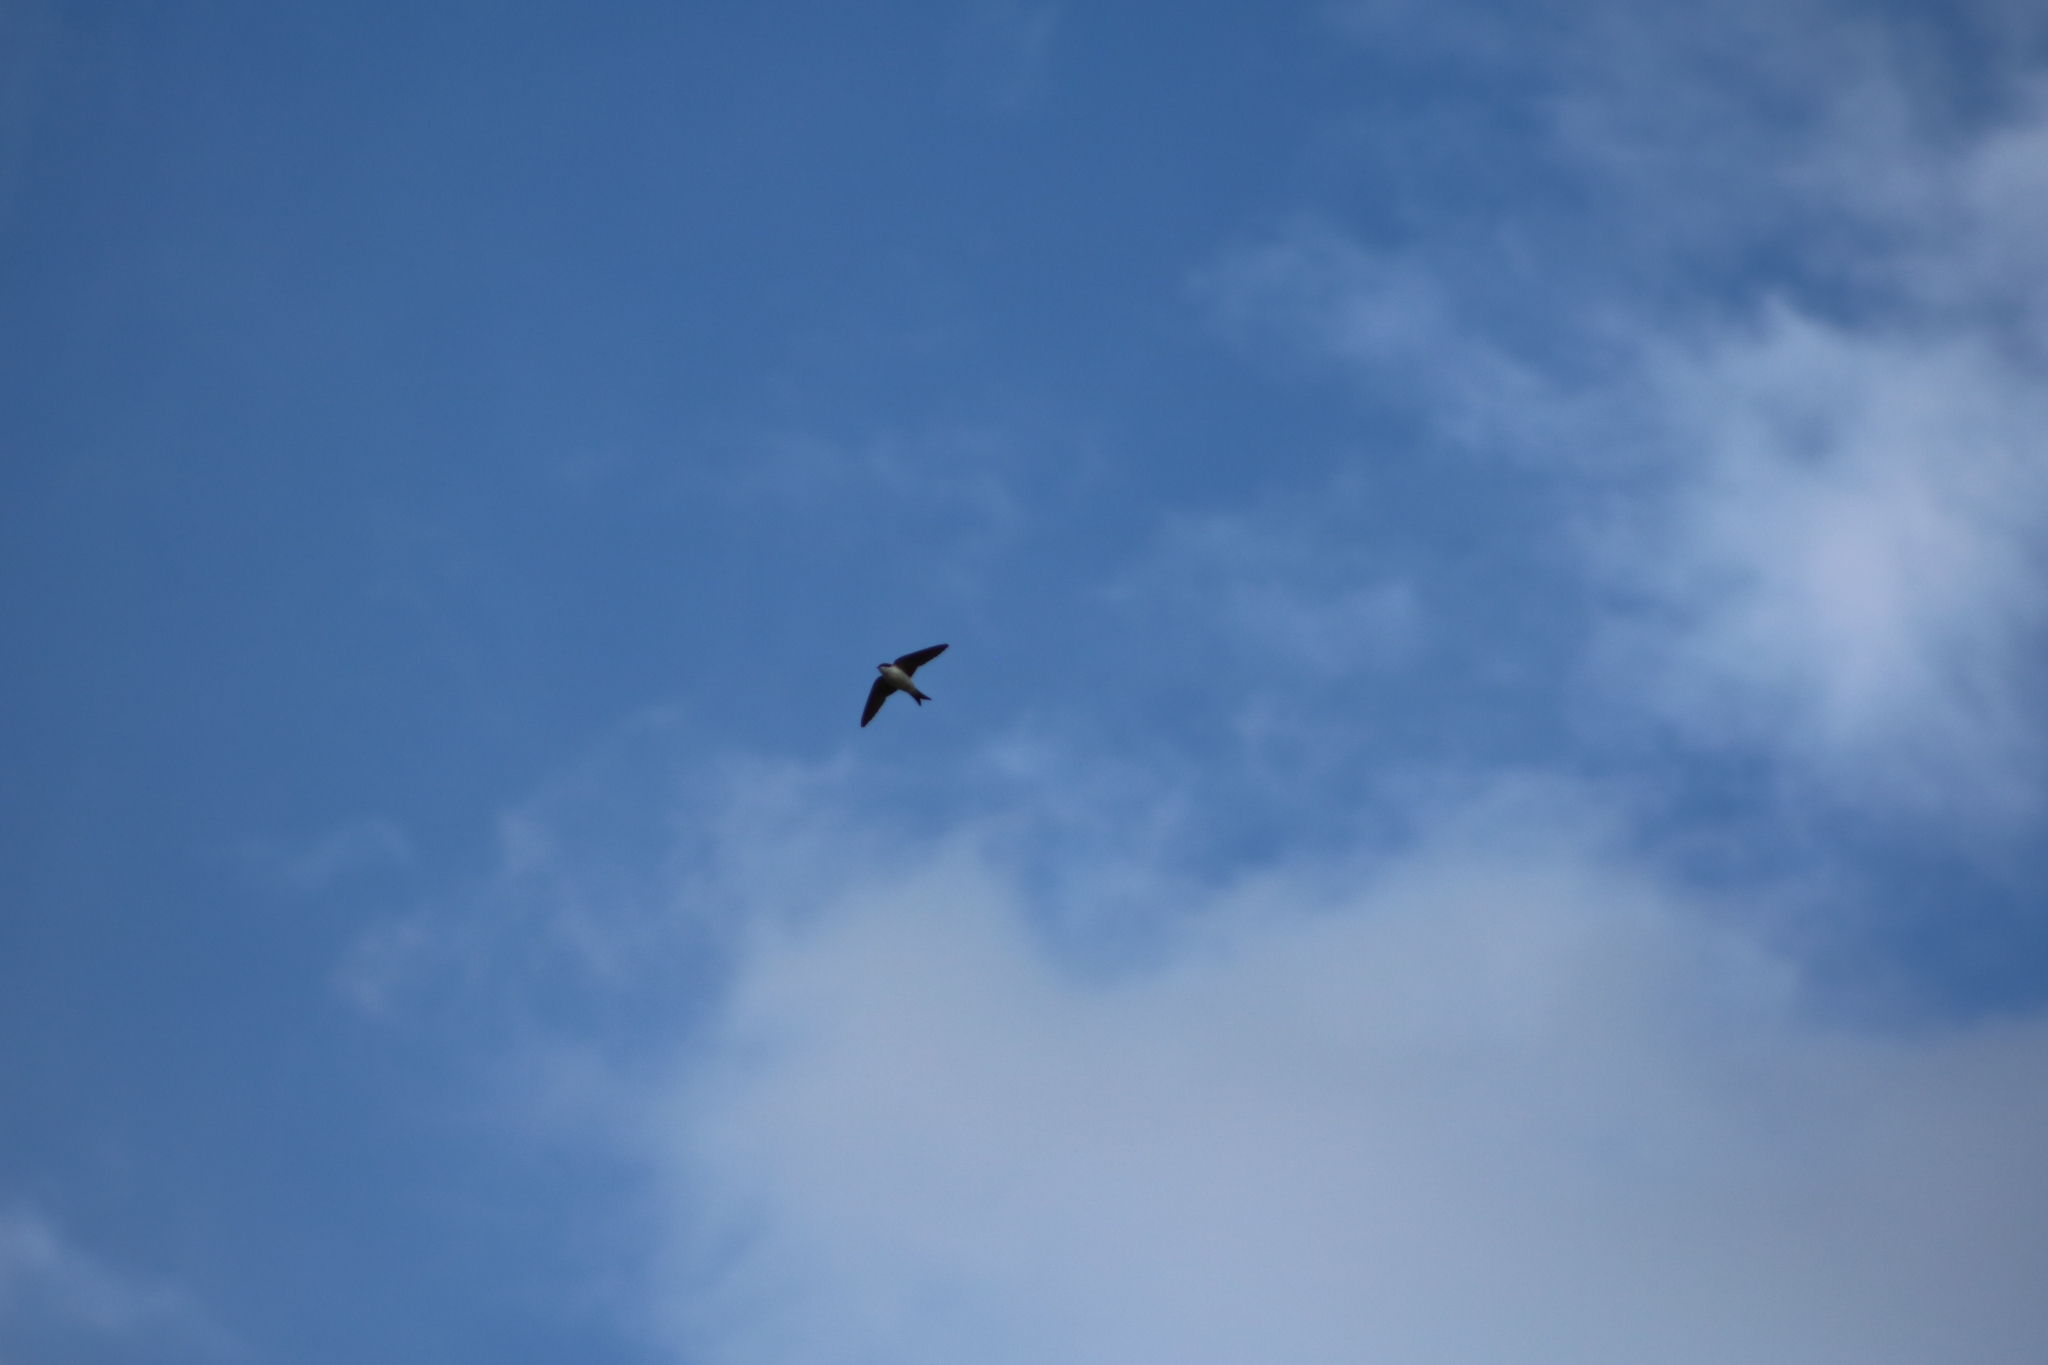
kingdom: Animalia
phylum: Chordata
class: Aves
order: Passeriformes
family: Hirundinidae
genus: Delichon
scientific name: Delichon urbicum
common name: Common house martin
